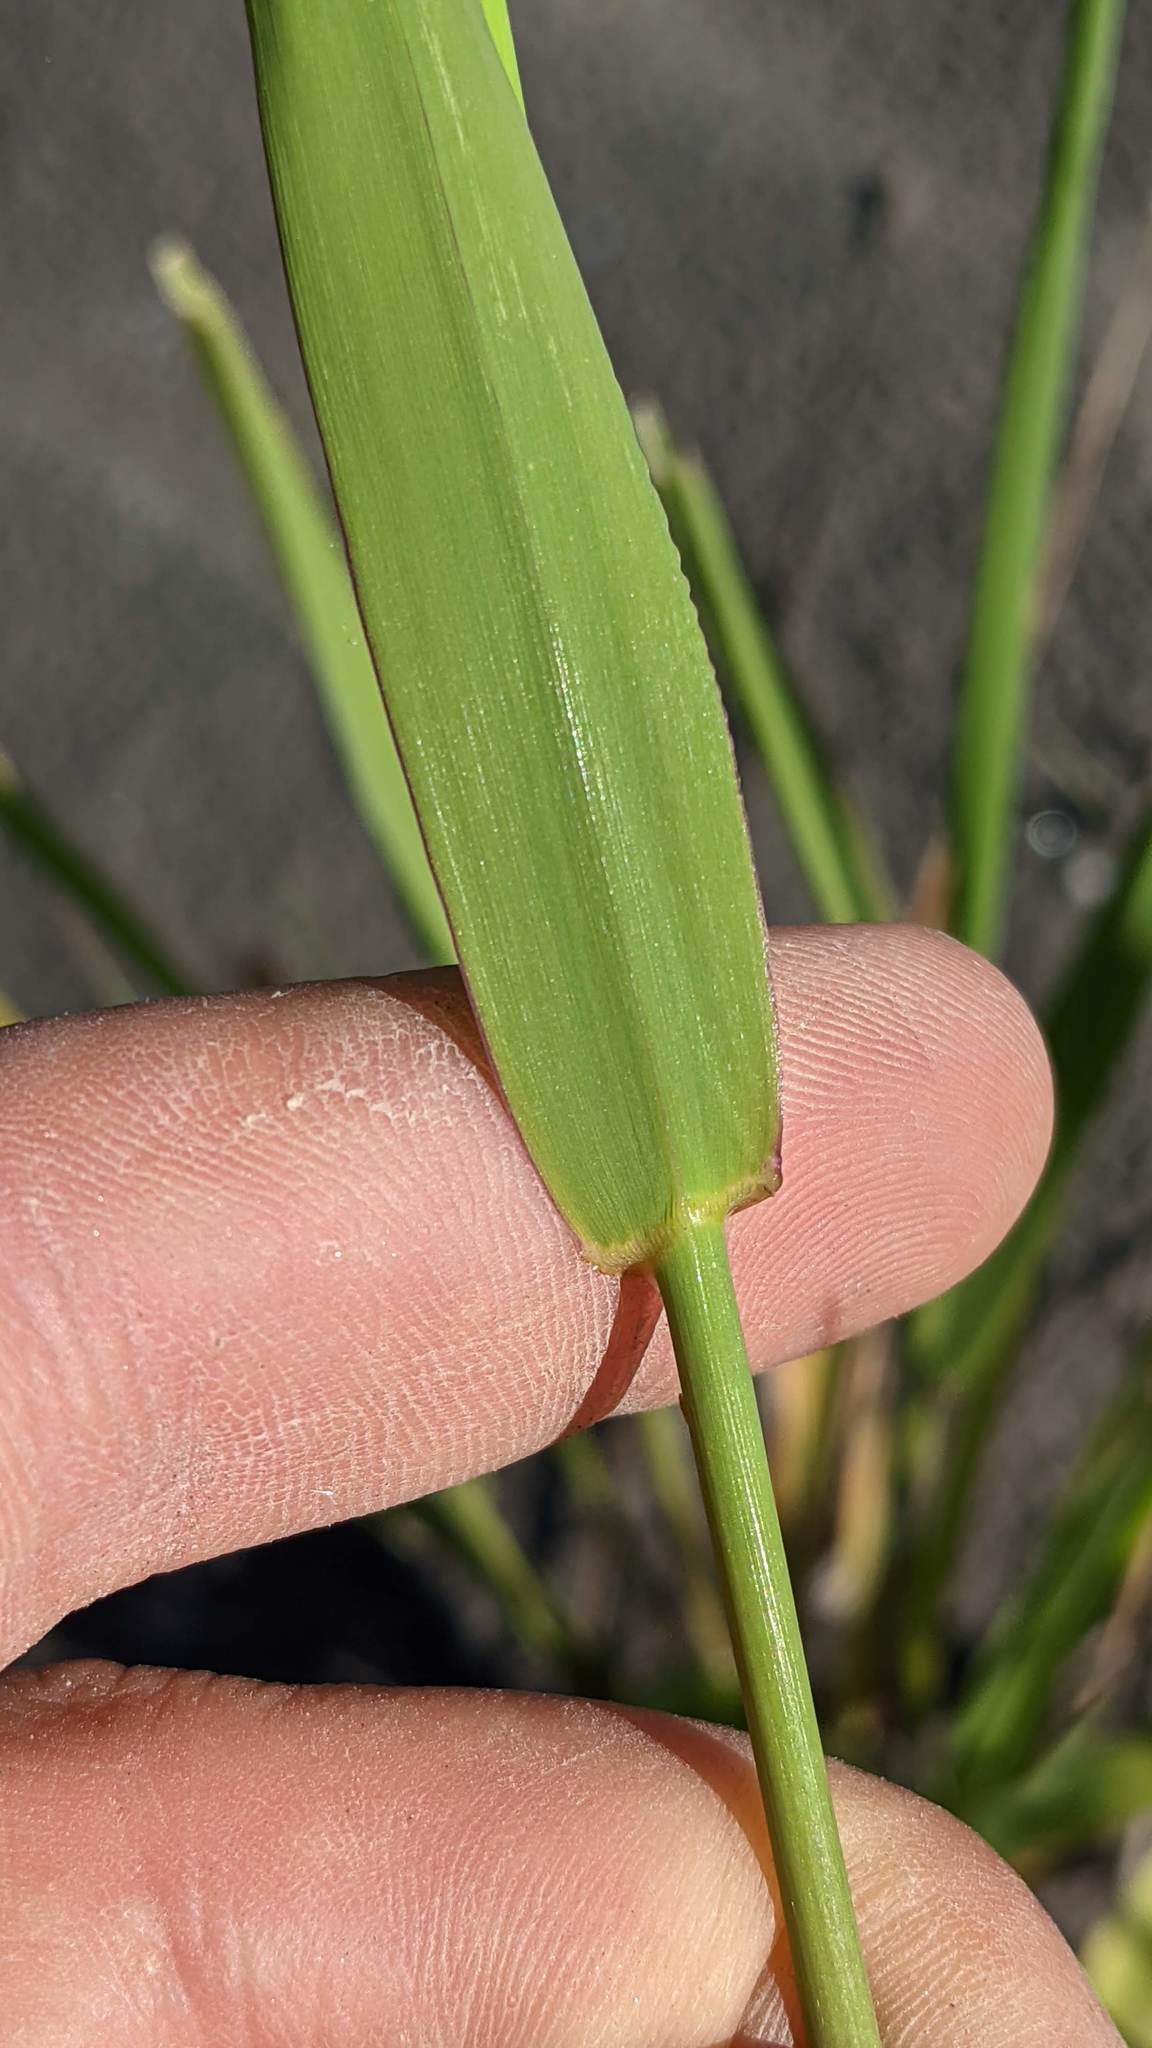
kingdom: Plantae
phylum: Tracheophyta
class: Liliopsida
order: Poales
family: Poaceae
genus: Phalaris
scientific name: Phalaris arundinacea
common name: Reed canary-grass
